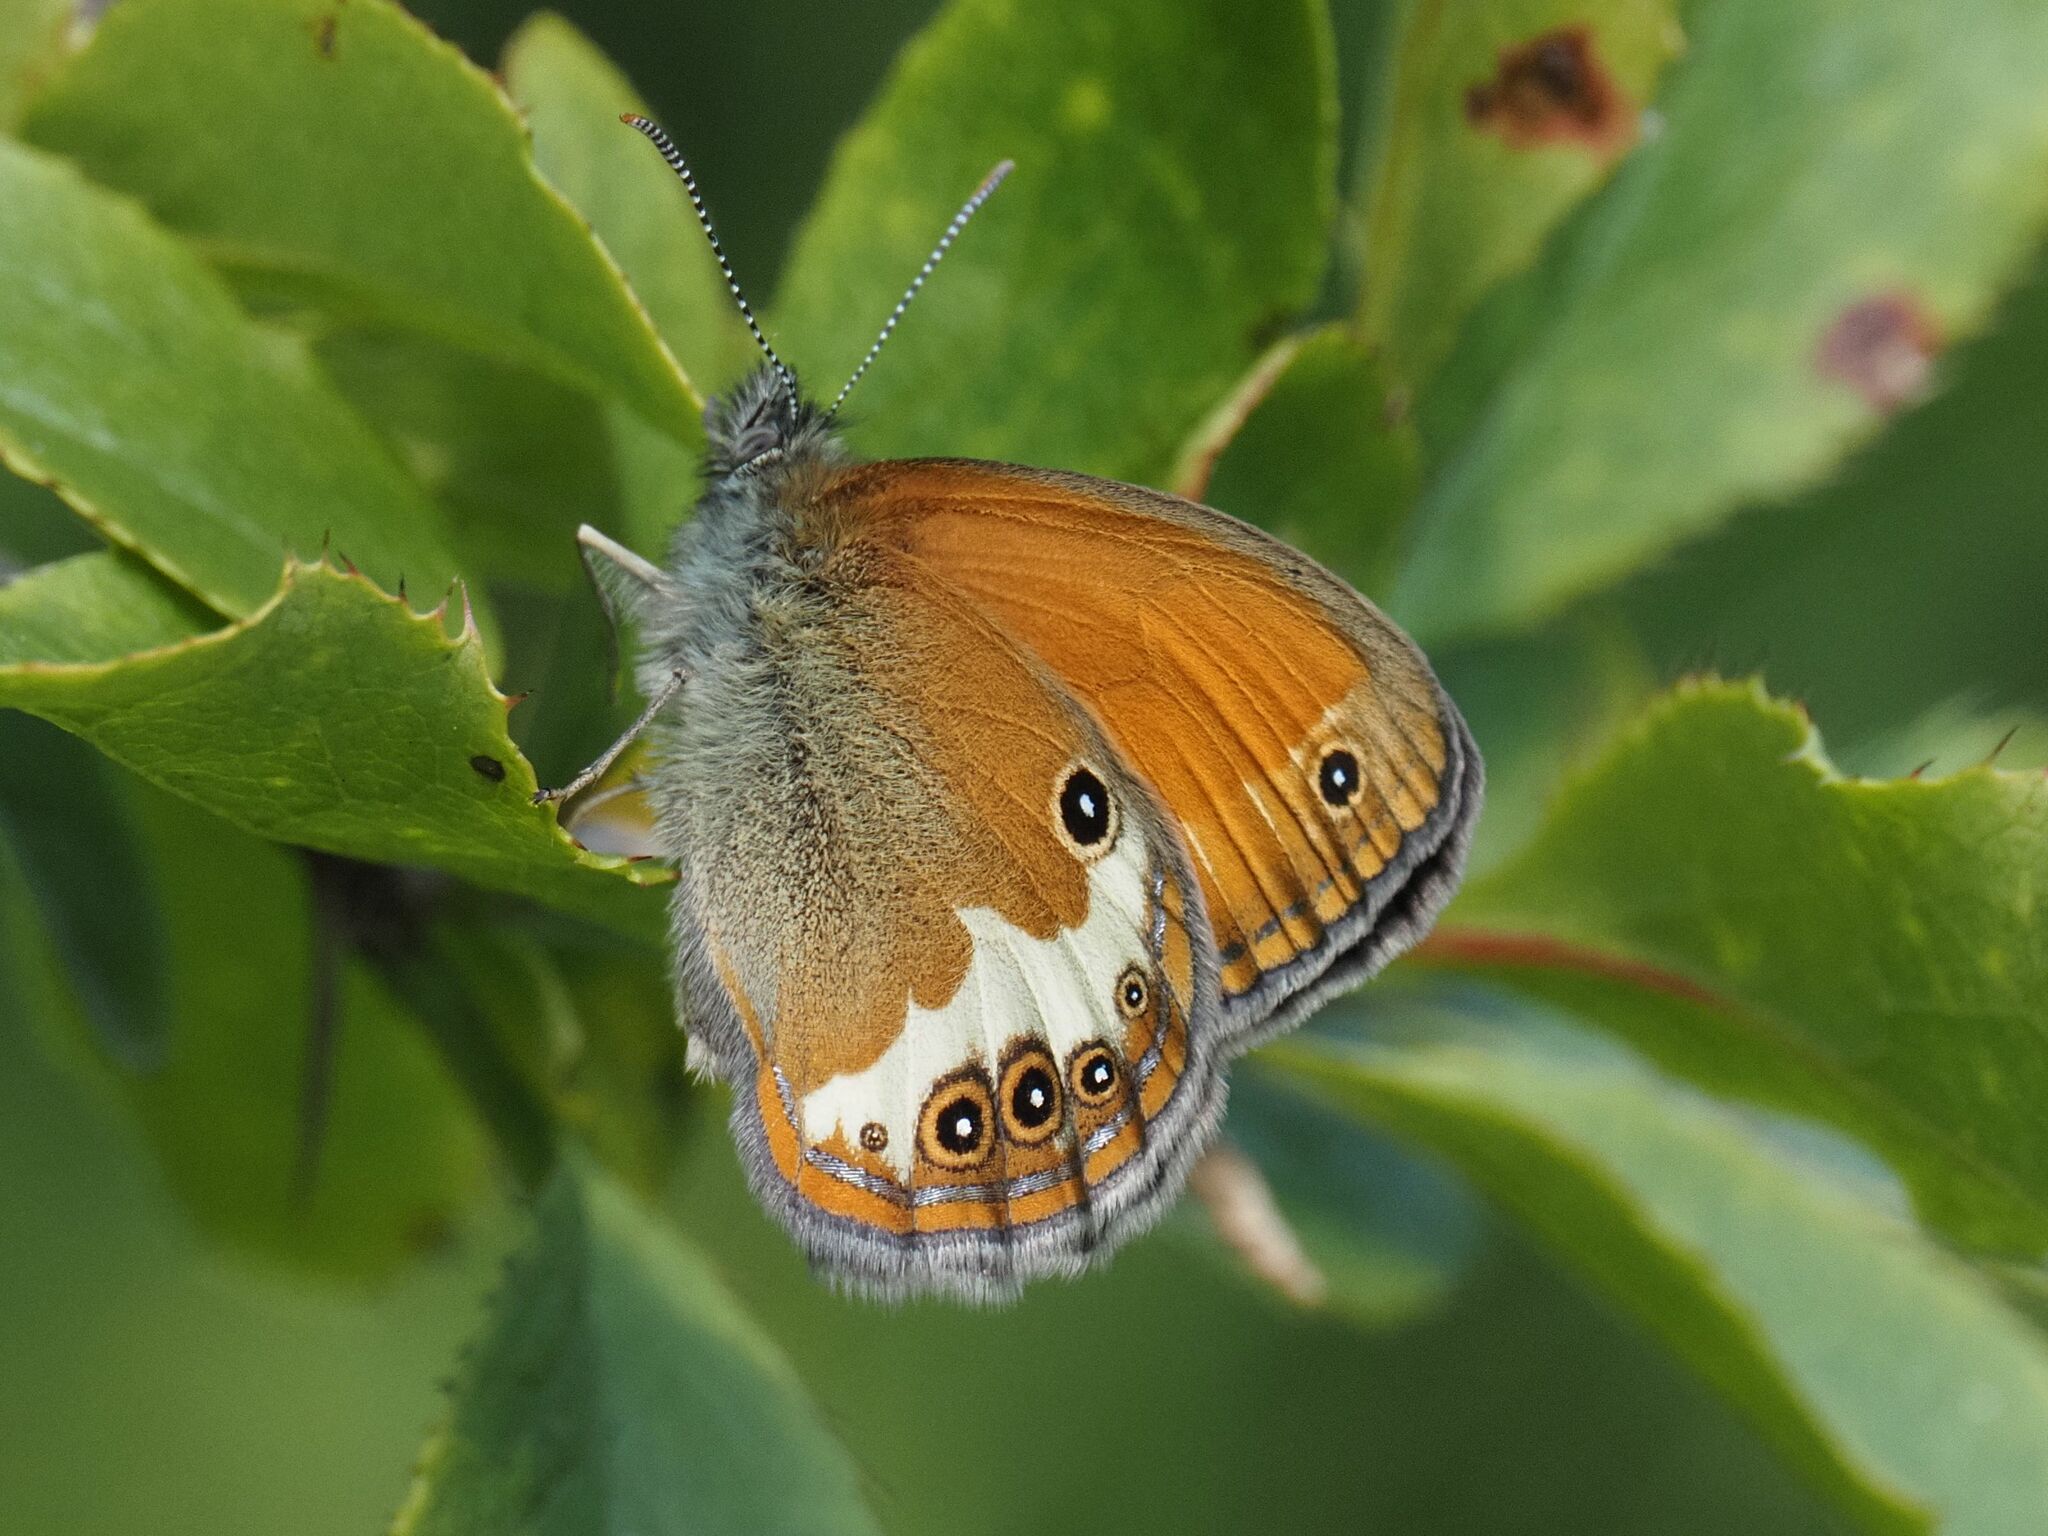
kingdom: Animalia
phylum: Arthropoda
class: Insecta
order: Lepidoptera
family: Nymphalidae
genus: Coenonympha
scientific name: Coenonympha arcania
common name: Pearly heath
